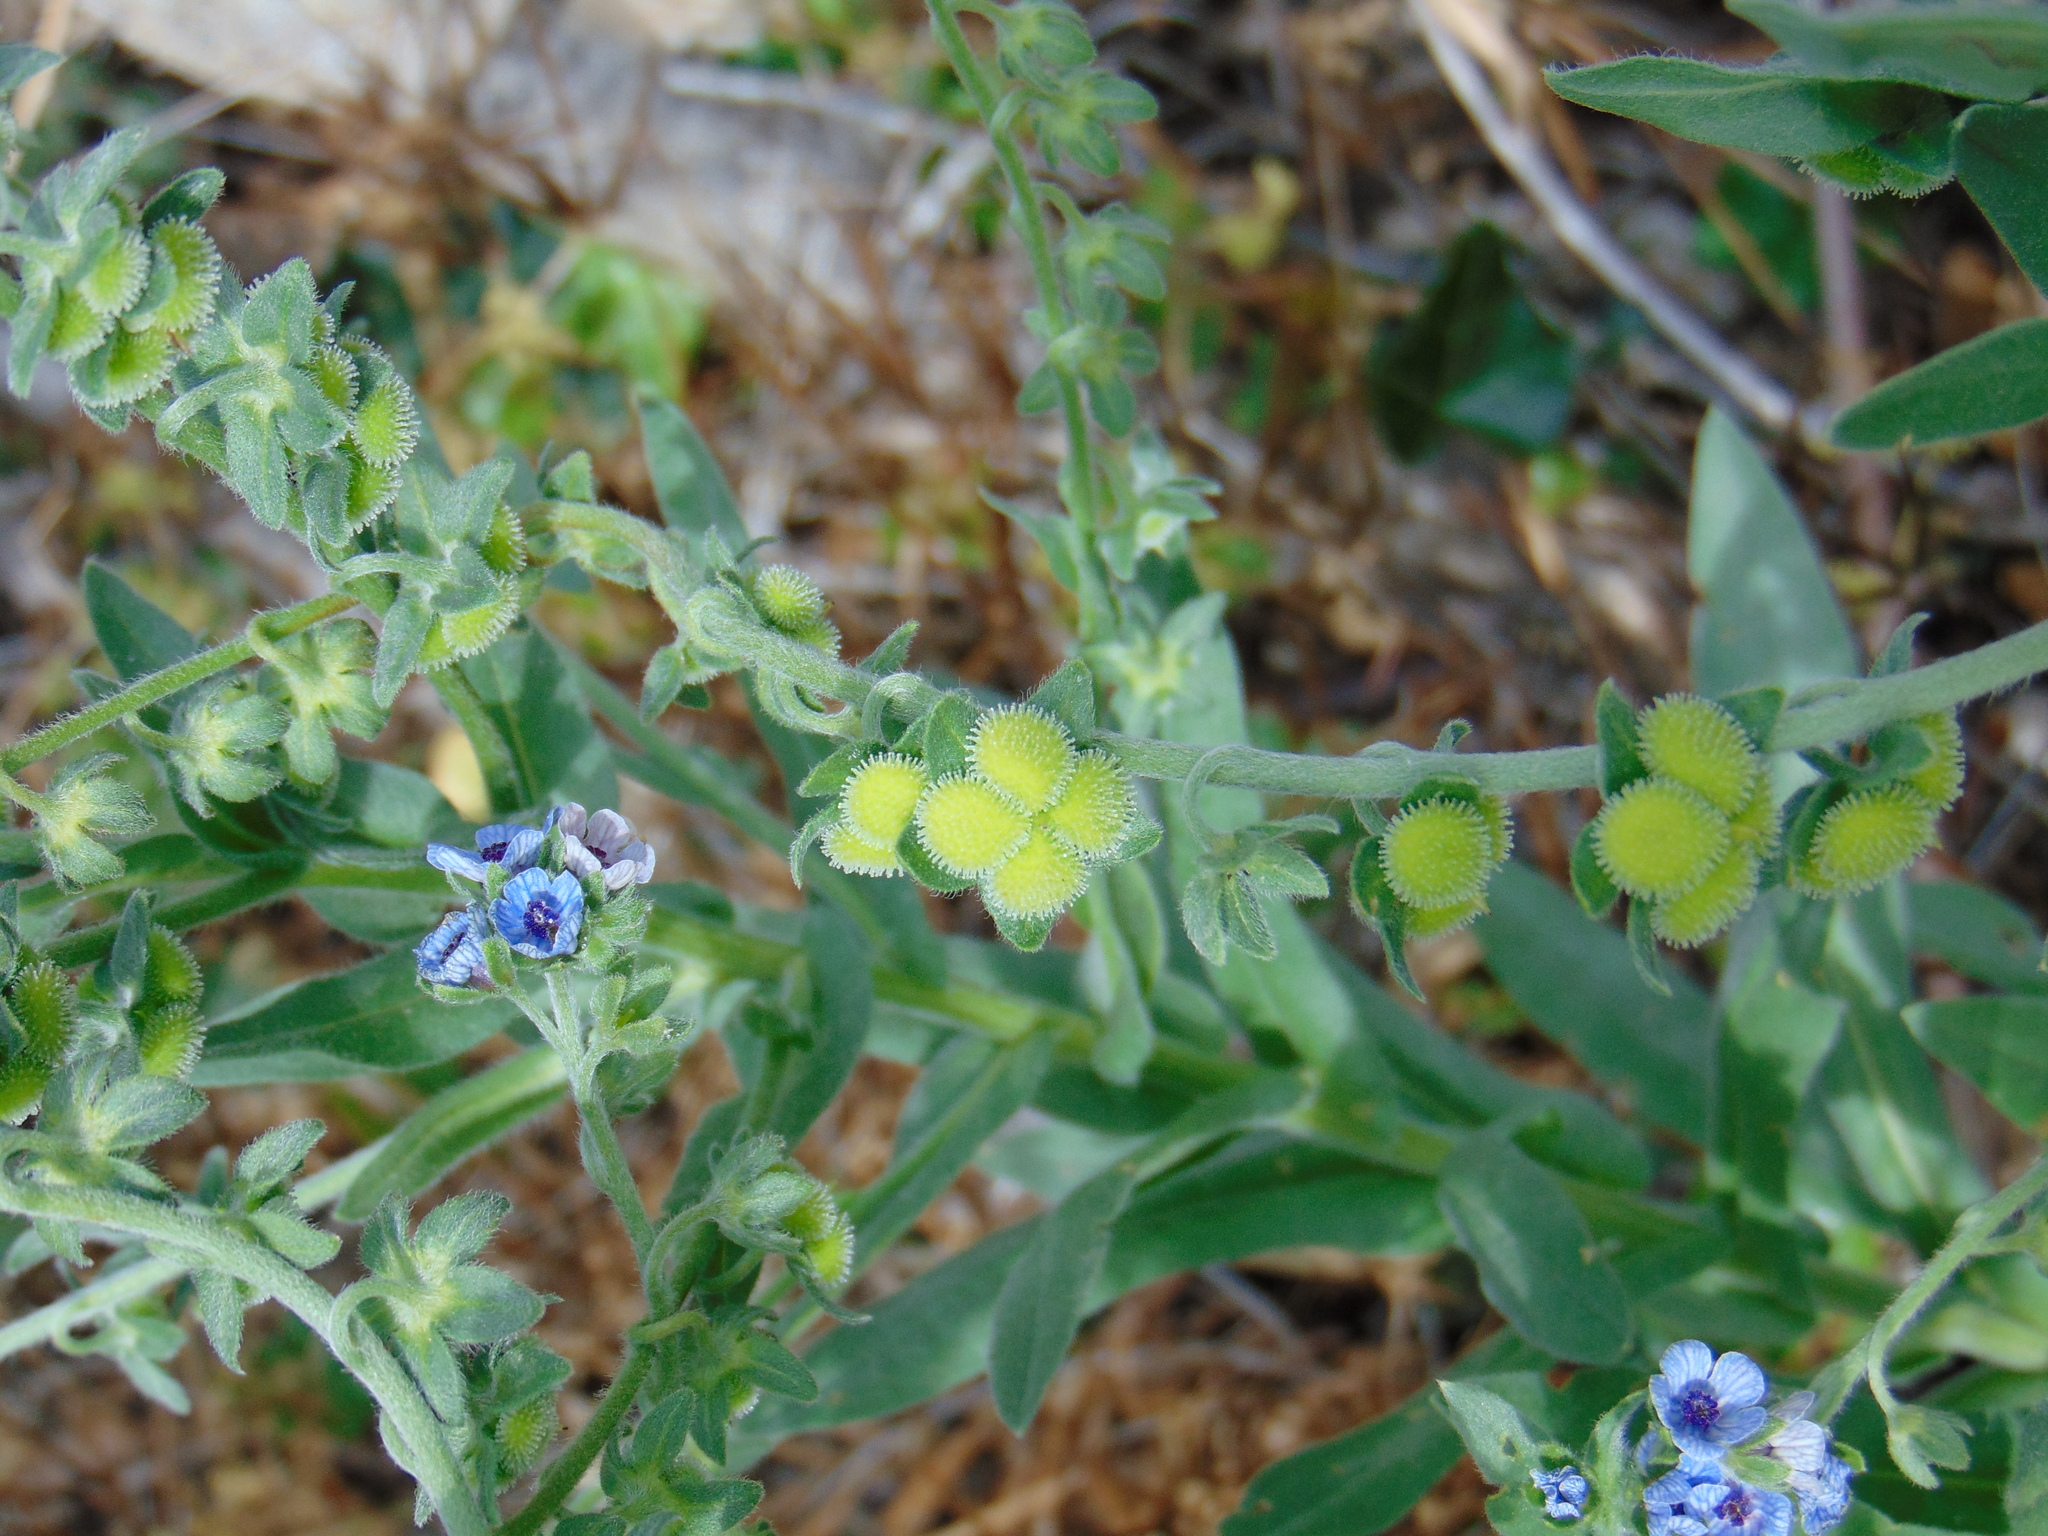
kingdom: Plantae
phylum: Tracheophyta
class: Magnoliopsida
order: Boraginales
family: Boraginaceae
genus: Cynoglossum
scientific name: Cynoglossum creticum
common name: Blue hound's tongue
